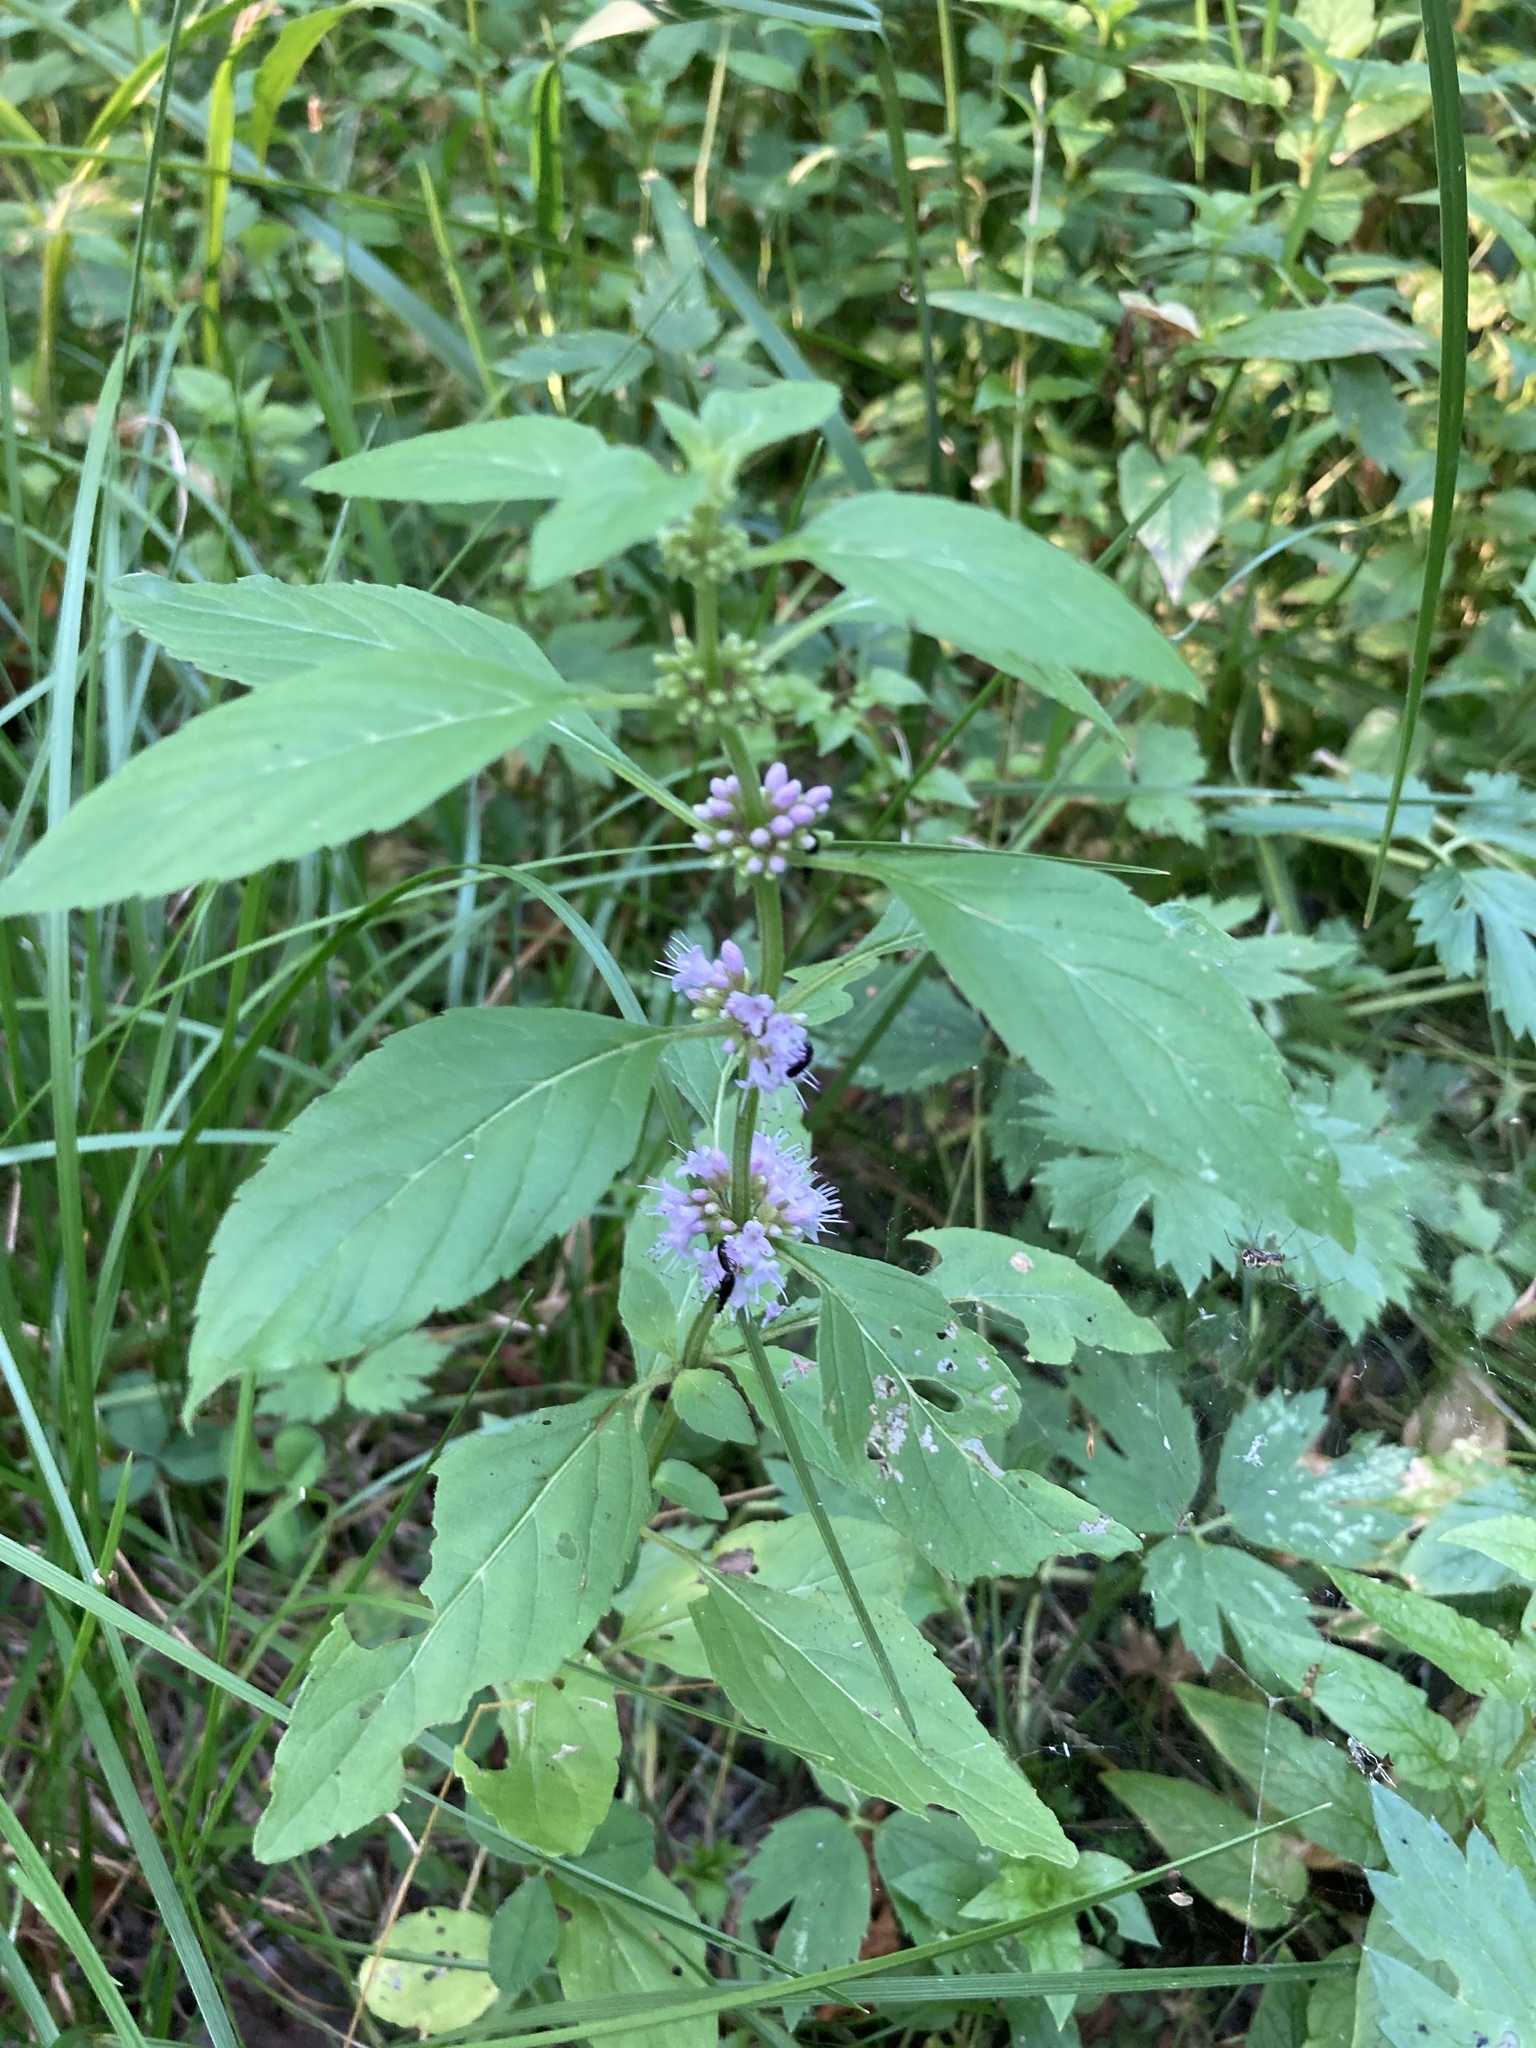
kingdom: Plantae
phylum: Tracheophyta
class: Magnoliopsida
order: Lamiales
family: Lamiaceae
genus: Mentha
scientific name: Mentha arvensis
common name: Corn mint
